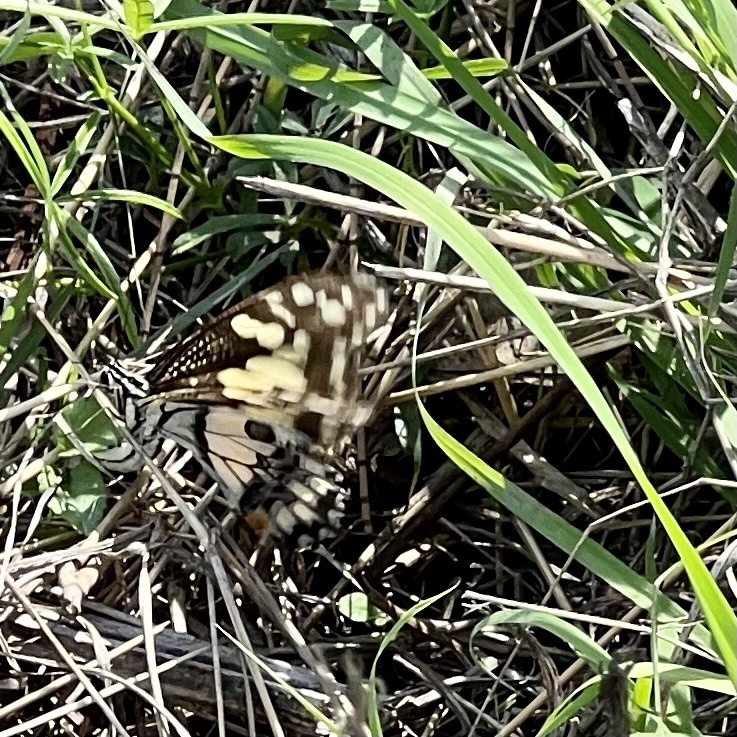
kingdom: Animalia
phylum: Arthropoda
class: Insecta
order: Lepidoptera
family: Papilionidae
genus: Papilio
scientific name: Papilio demoleus
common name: Lime butterfly
